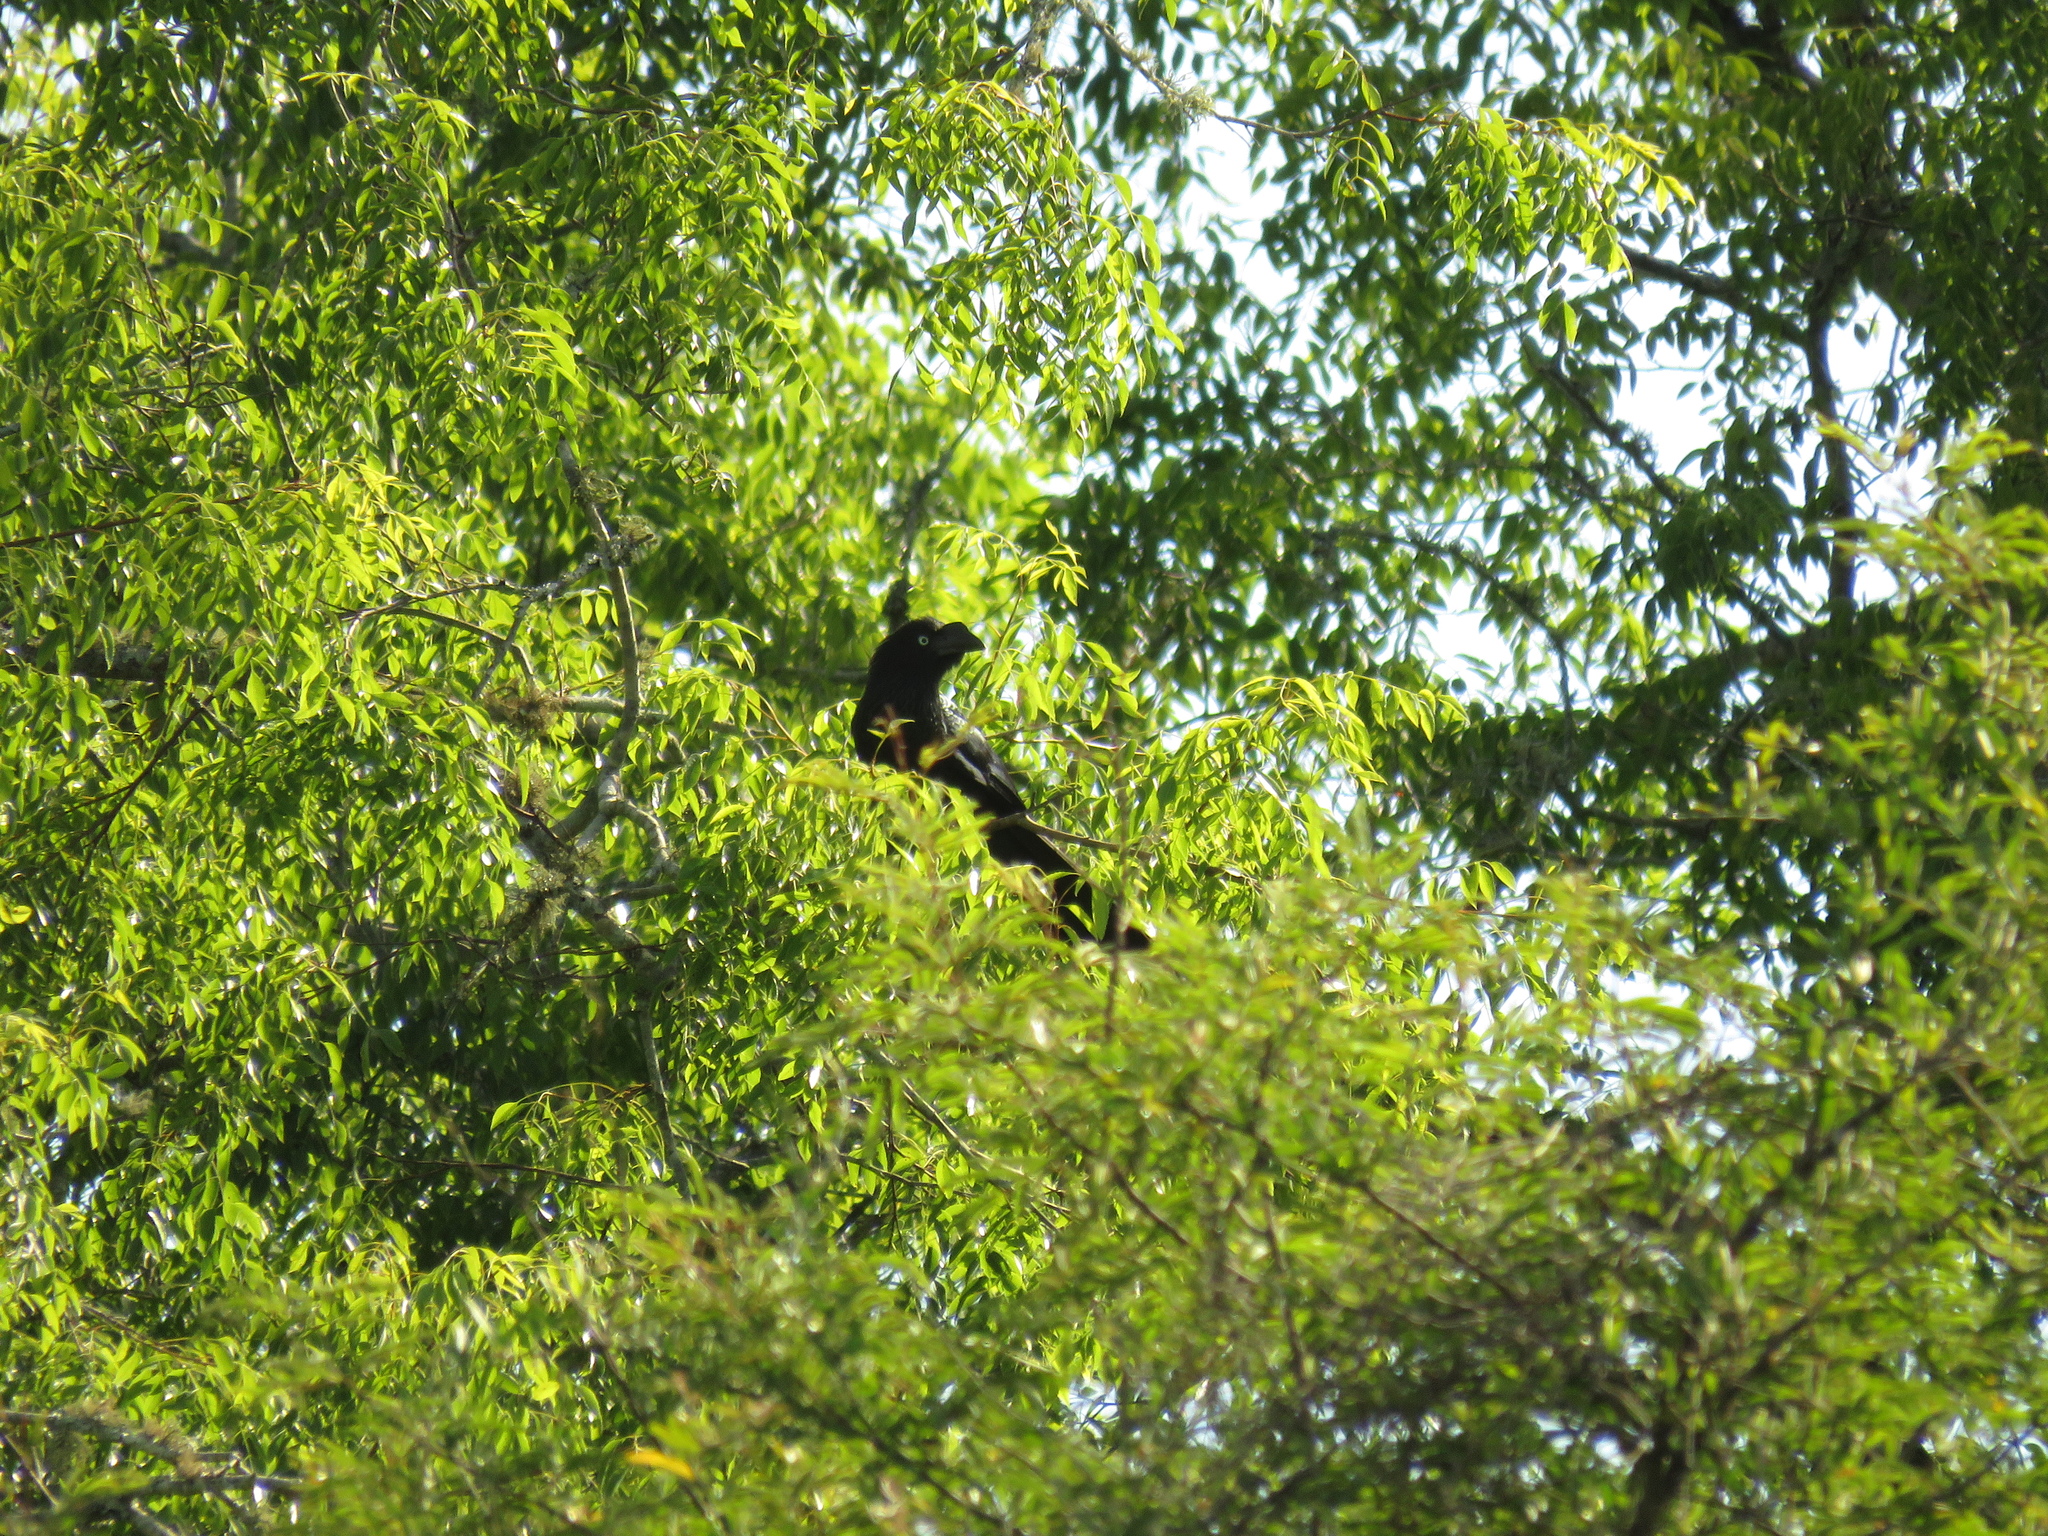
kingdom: Animalia
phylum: Chordata
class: Aves
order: Cuculiformes
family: Cuculidae
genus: Crotophaga
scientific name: Crotophaga major
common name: Greater ani
